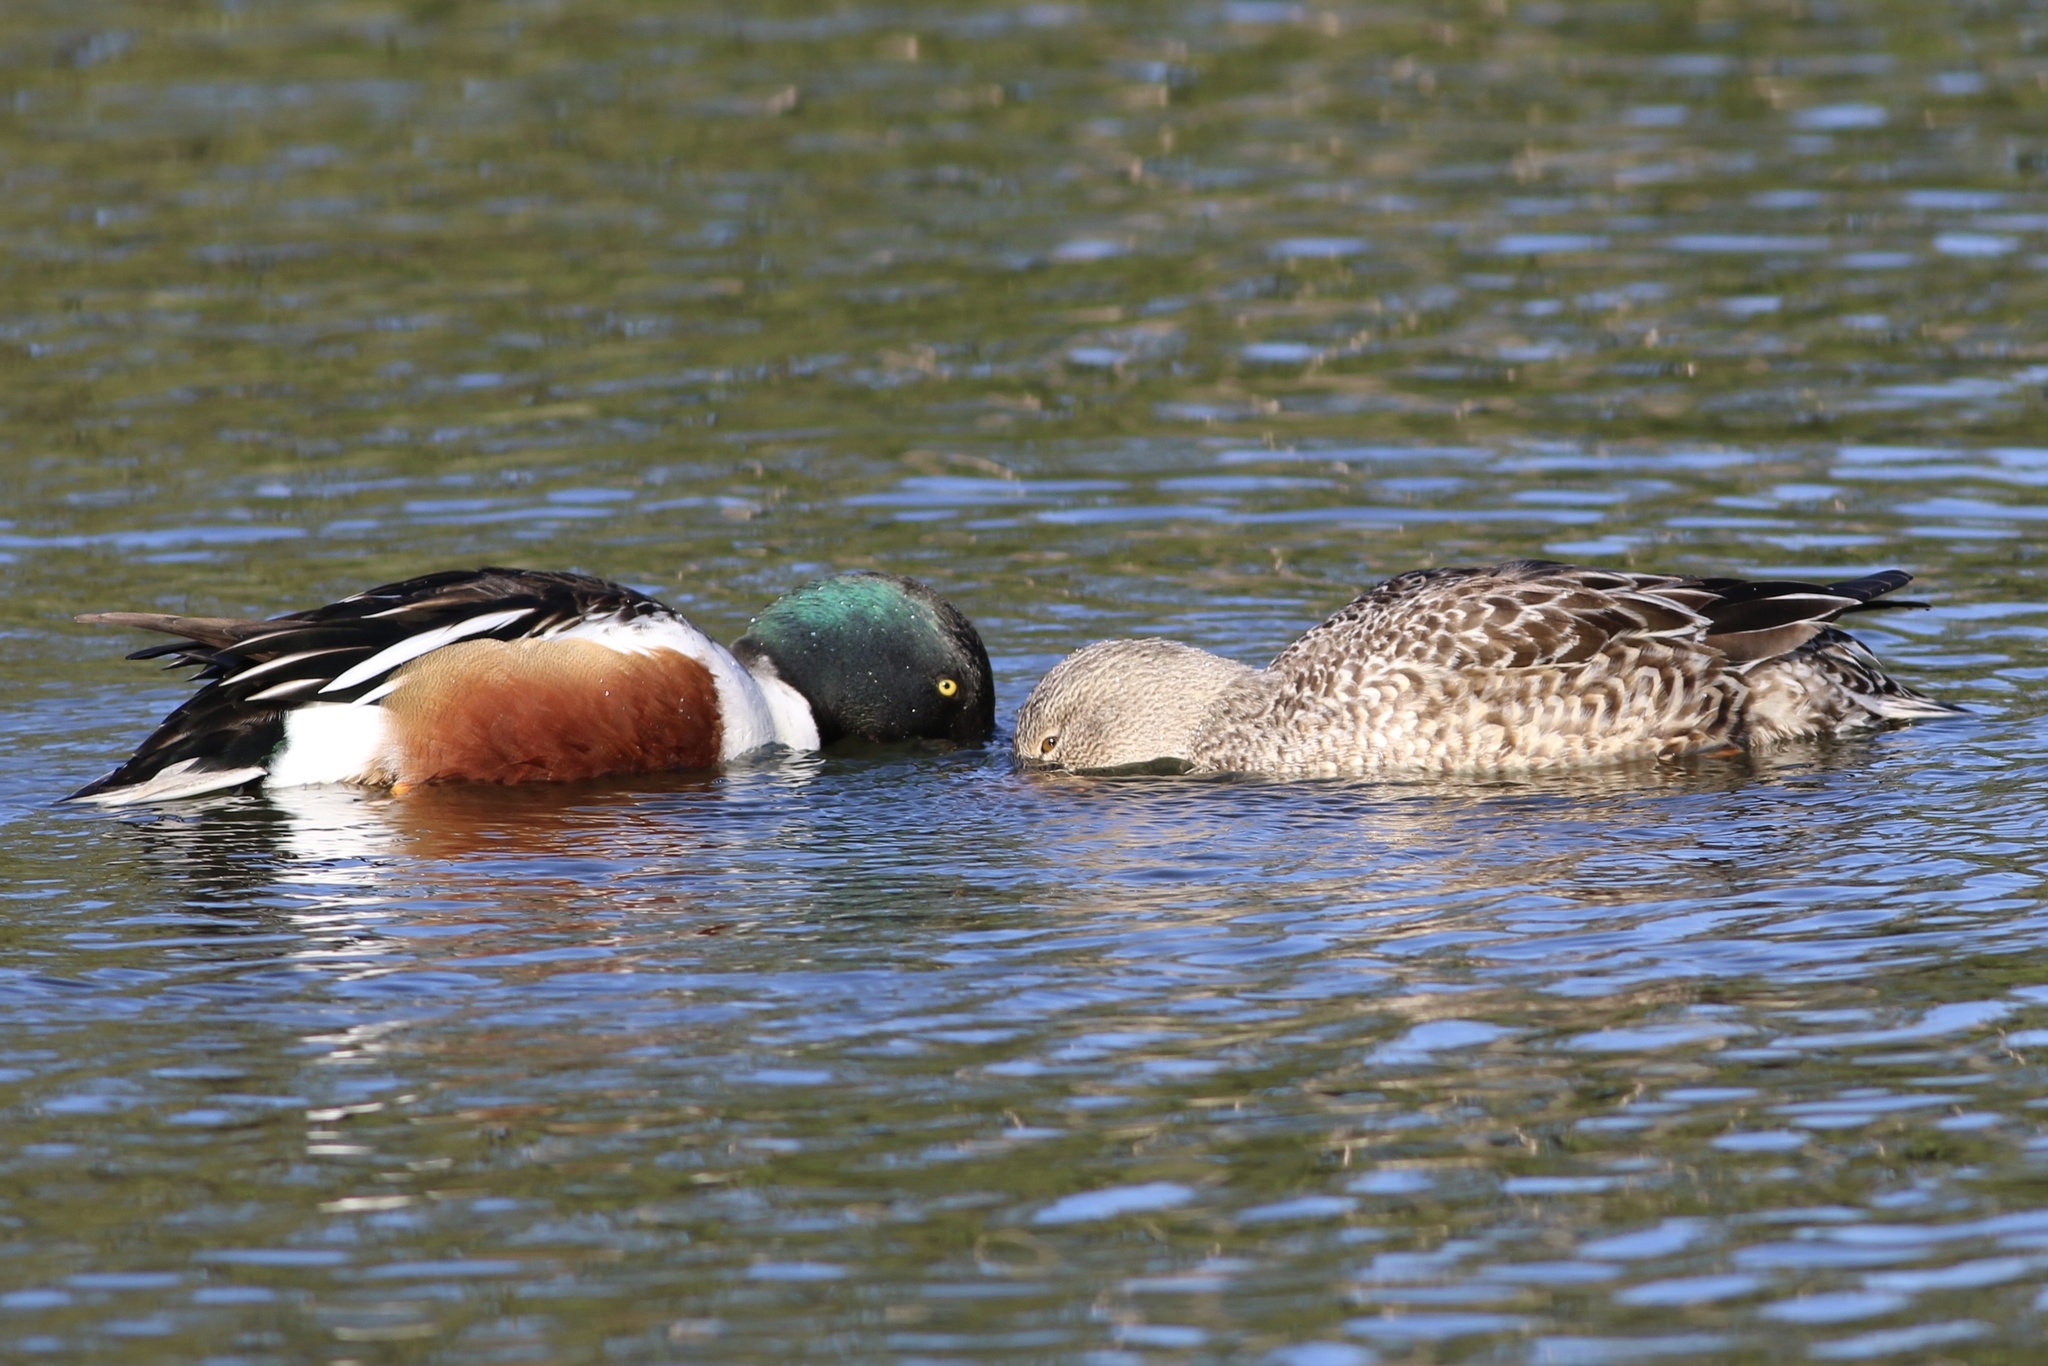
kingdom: Animalia
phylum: Chordata
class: Aves
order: Anseriformes
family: Anatidae
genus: Spatula
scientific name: Spatula clypeata
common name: Northern shoveler
